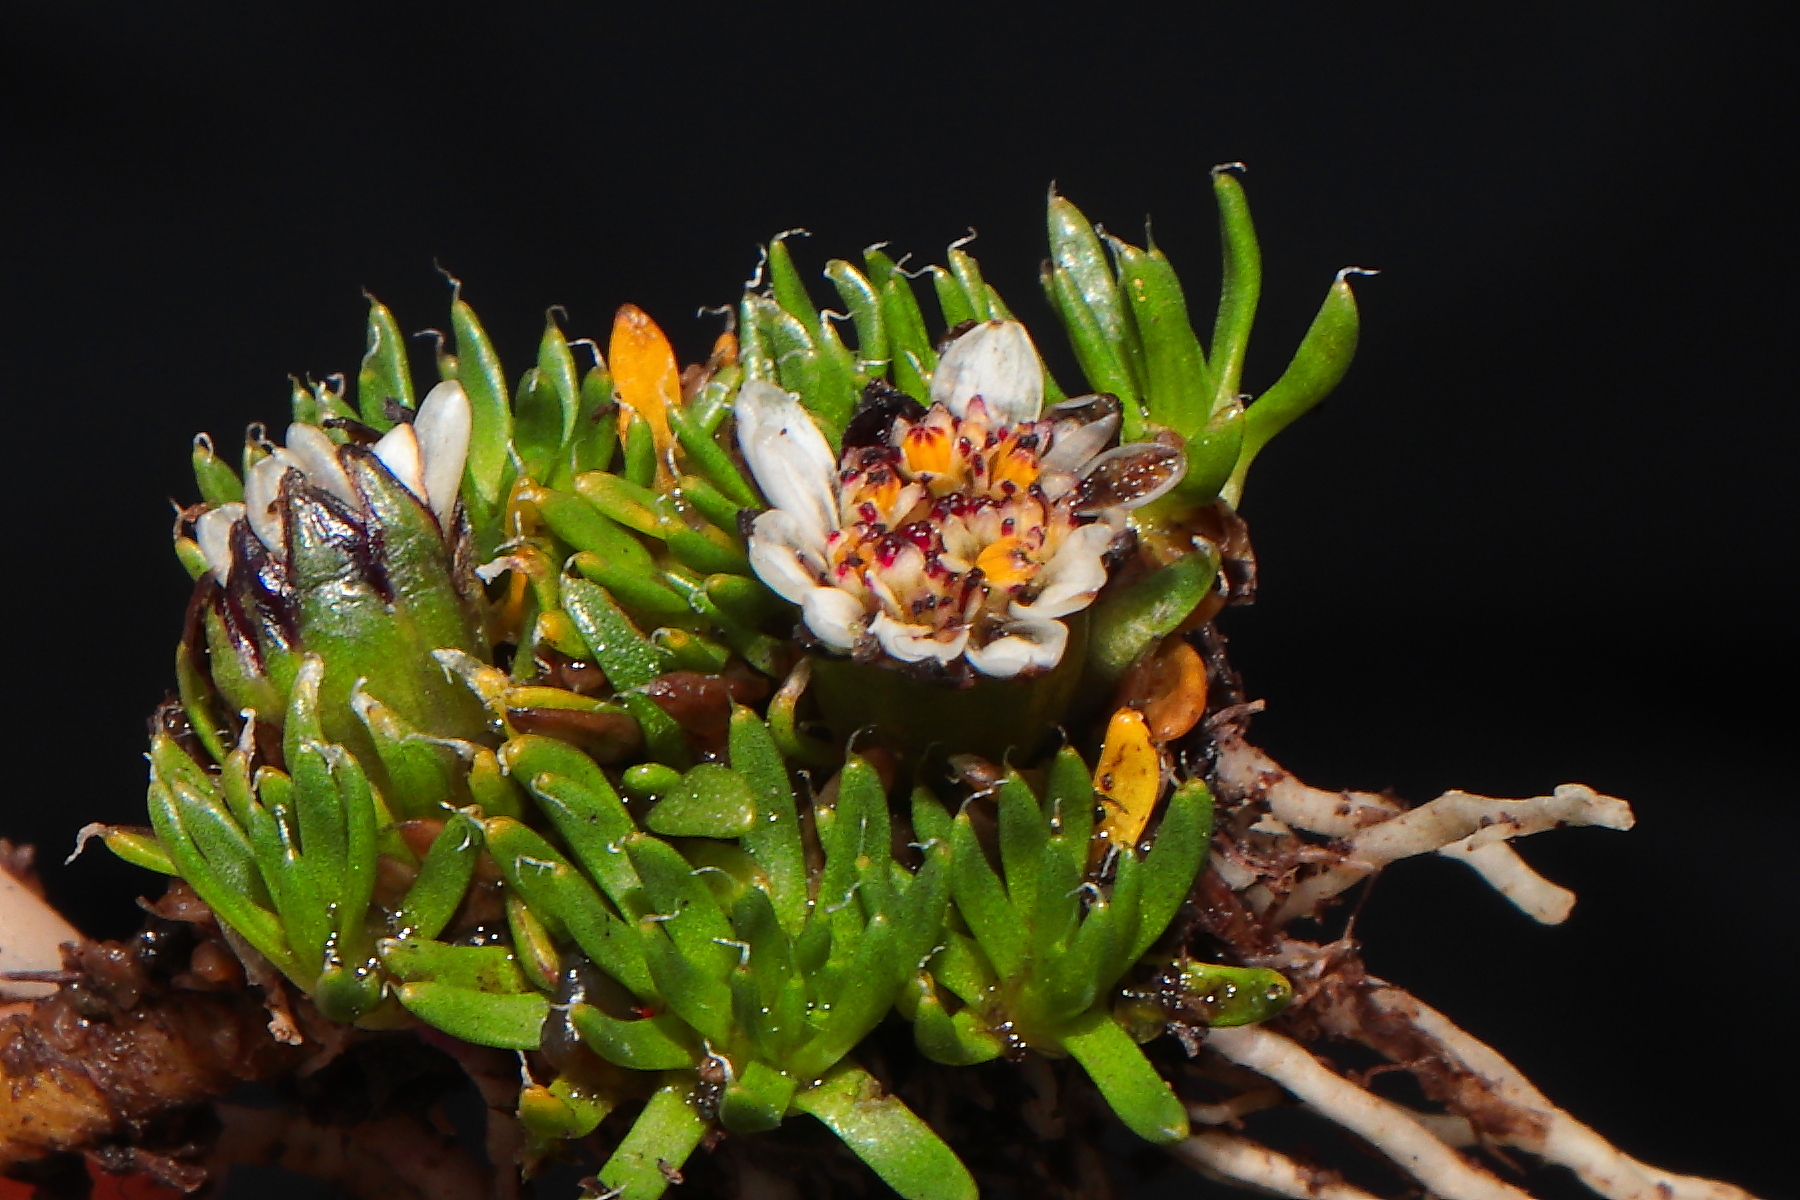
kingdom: Plantae
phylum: Tracheophyta
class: Magnoliopsida
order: Asterales
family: Asteraceae
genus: Rockhausenia
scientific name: Rockhausenia microphylla
